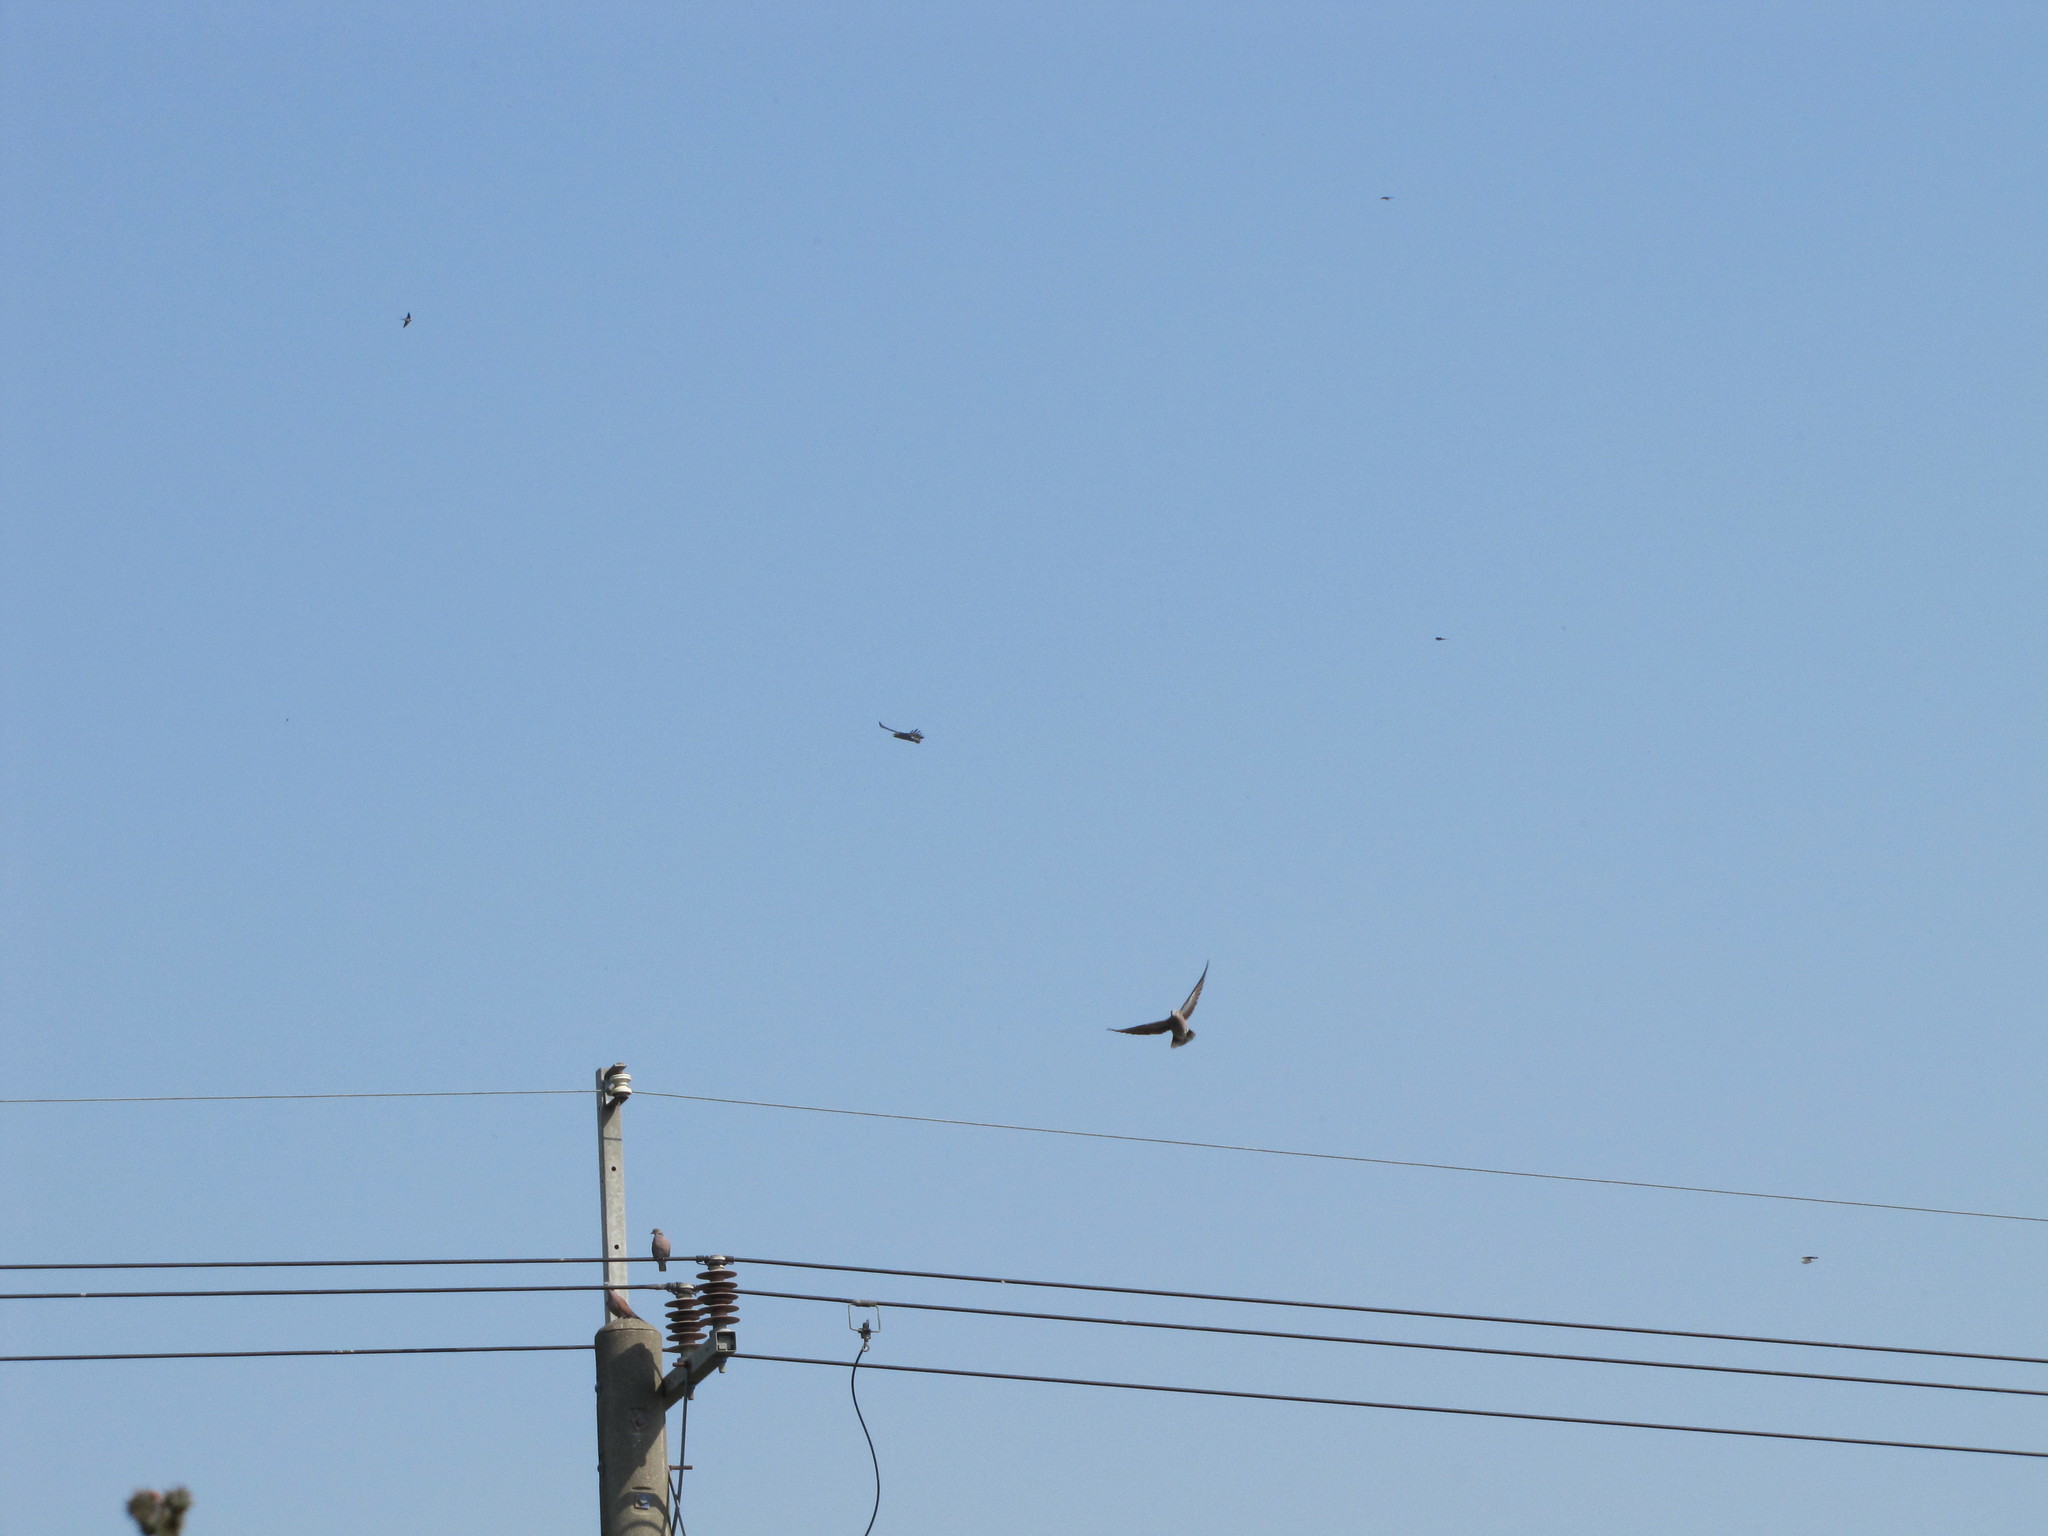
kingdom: Animalia
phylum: Chordata
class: Aves
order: Accipitriformes
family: Accipitridae
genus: Elanus
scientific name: Elanus caeruleus
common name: Black-winged kite
